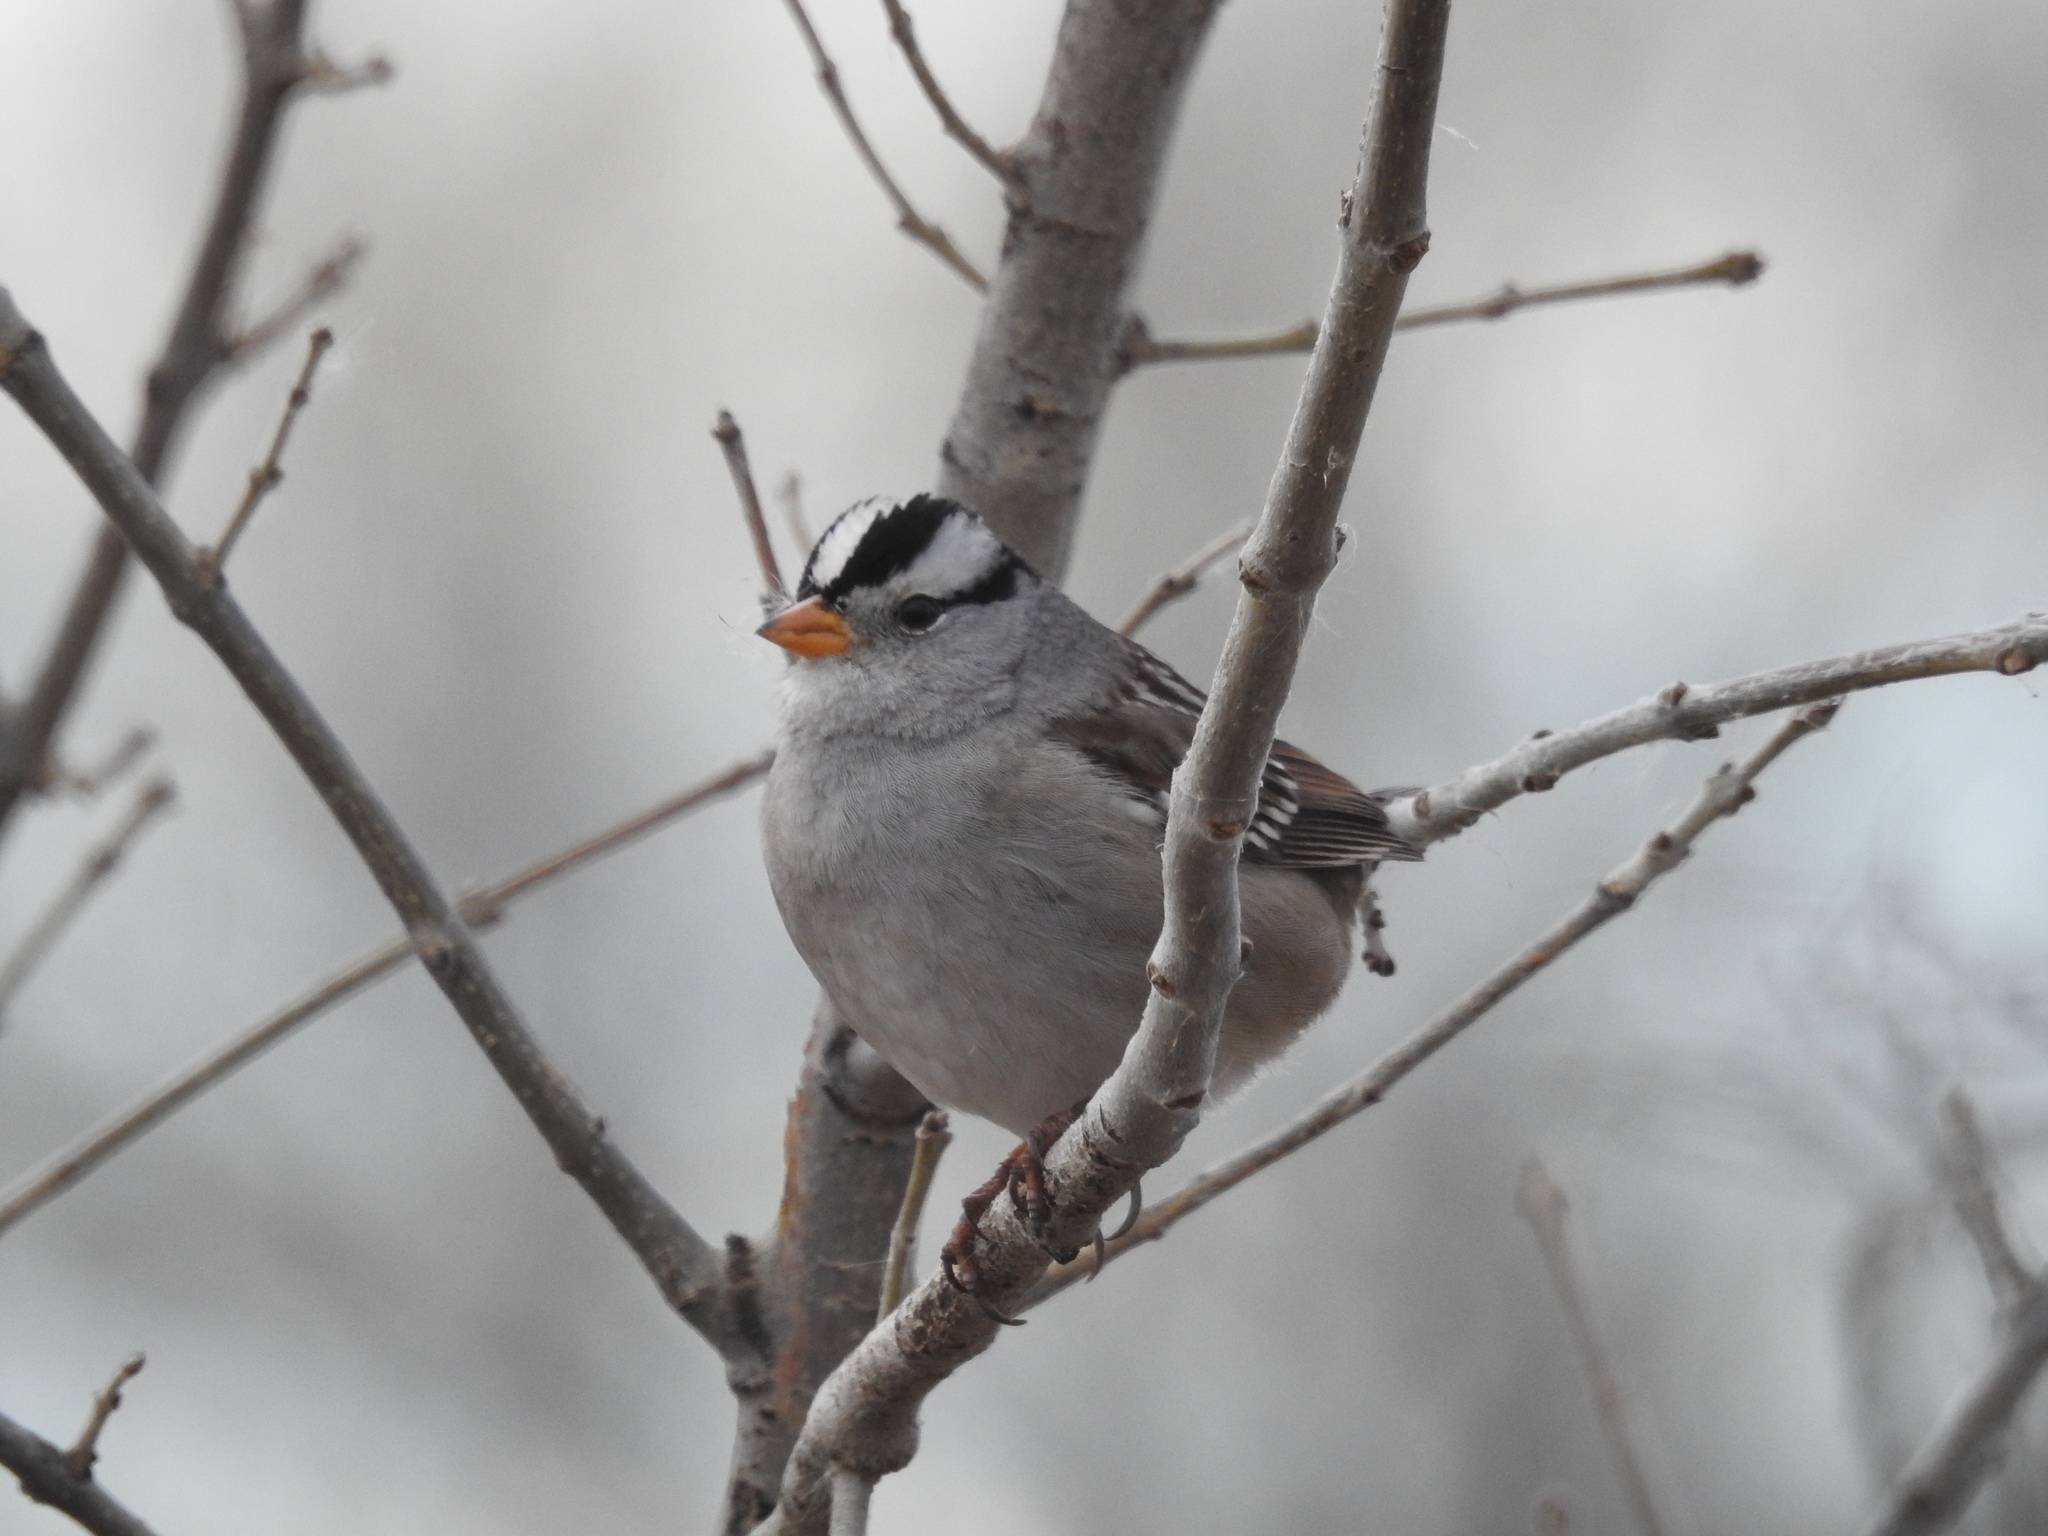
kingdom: Animalia
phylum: Chordata
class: Aves
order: Passeriformes
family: Passerellidae
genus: Zonotrichia
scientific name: Zonotrichia leucophrys
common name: White-crowned sparrow
